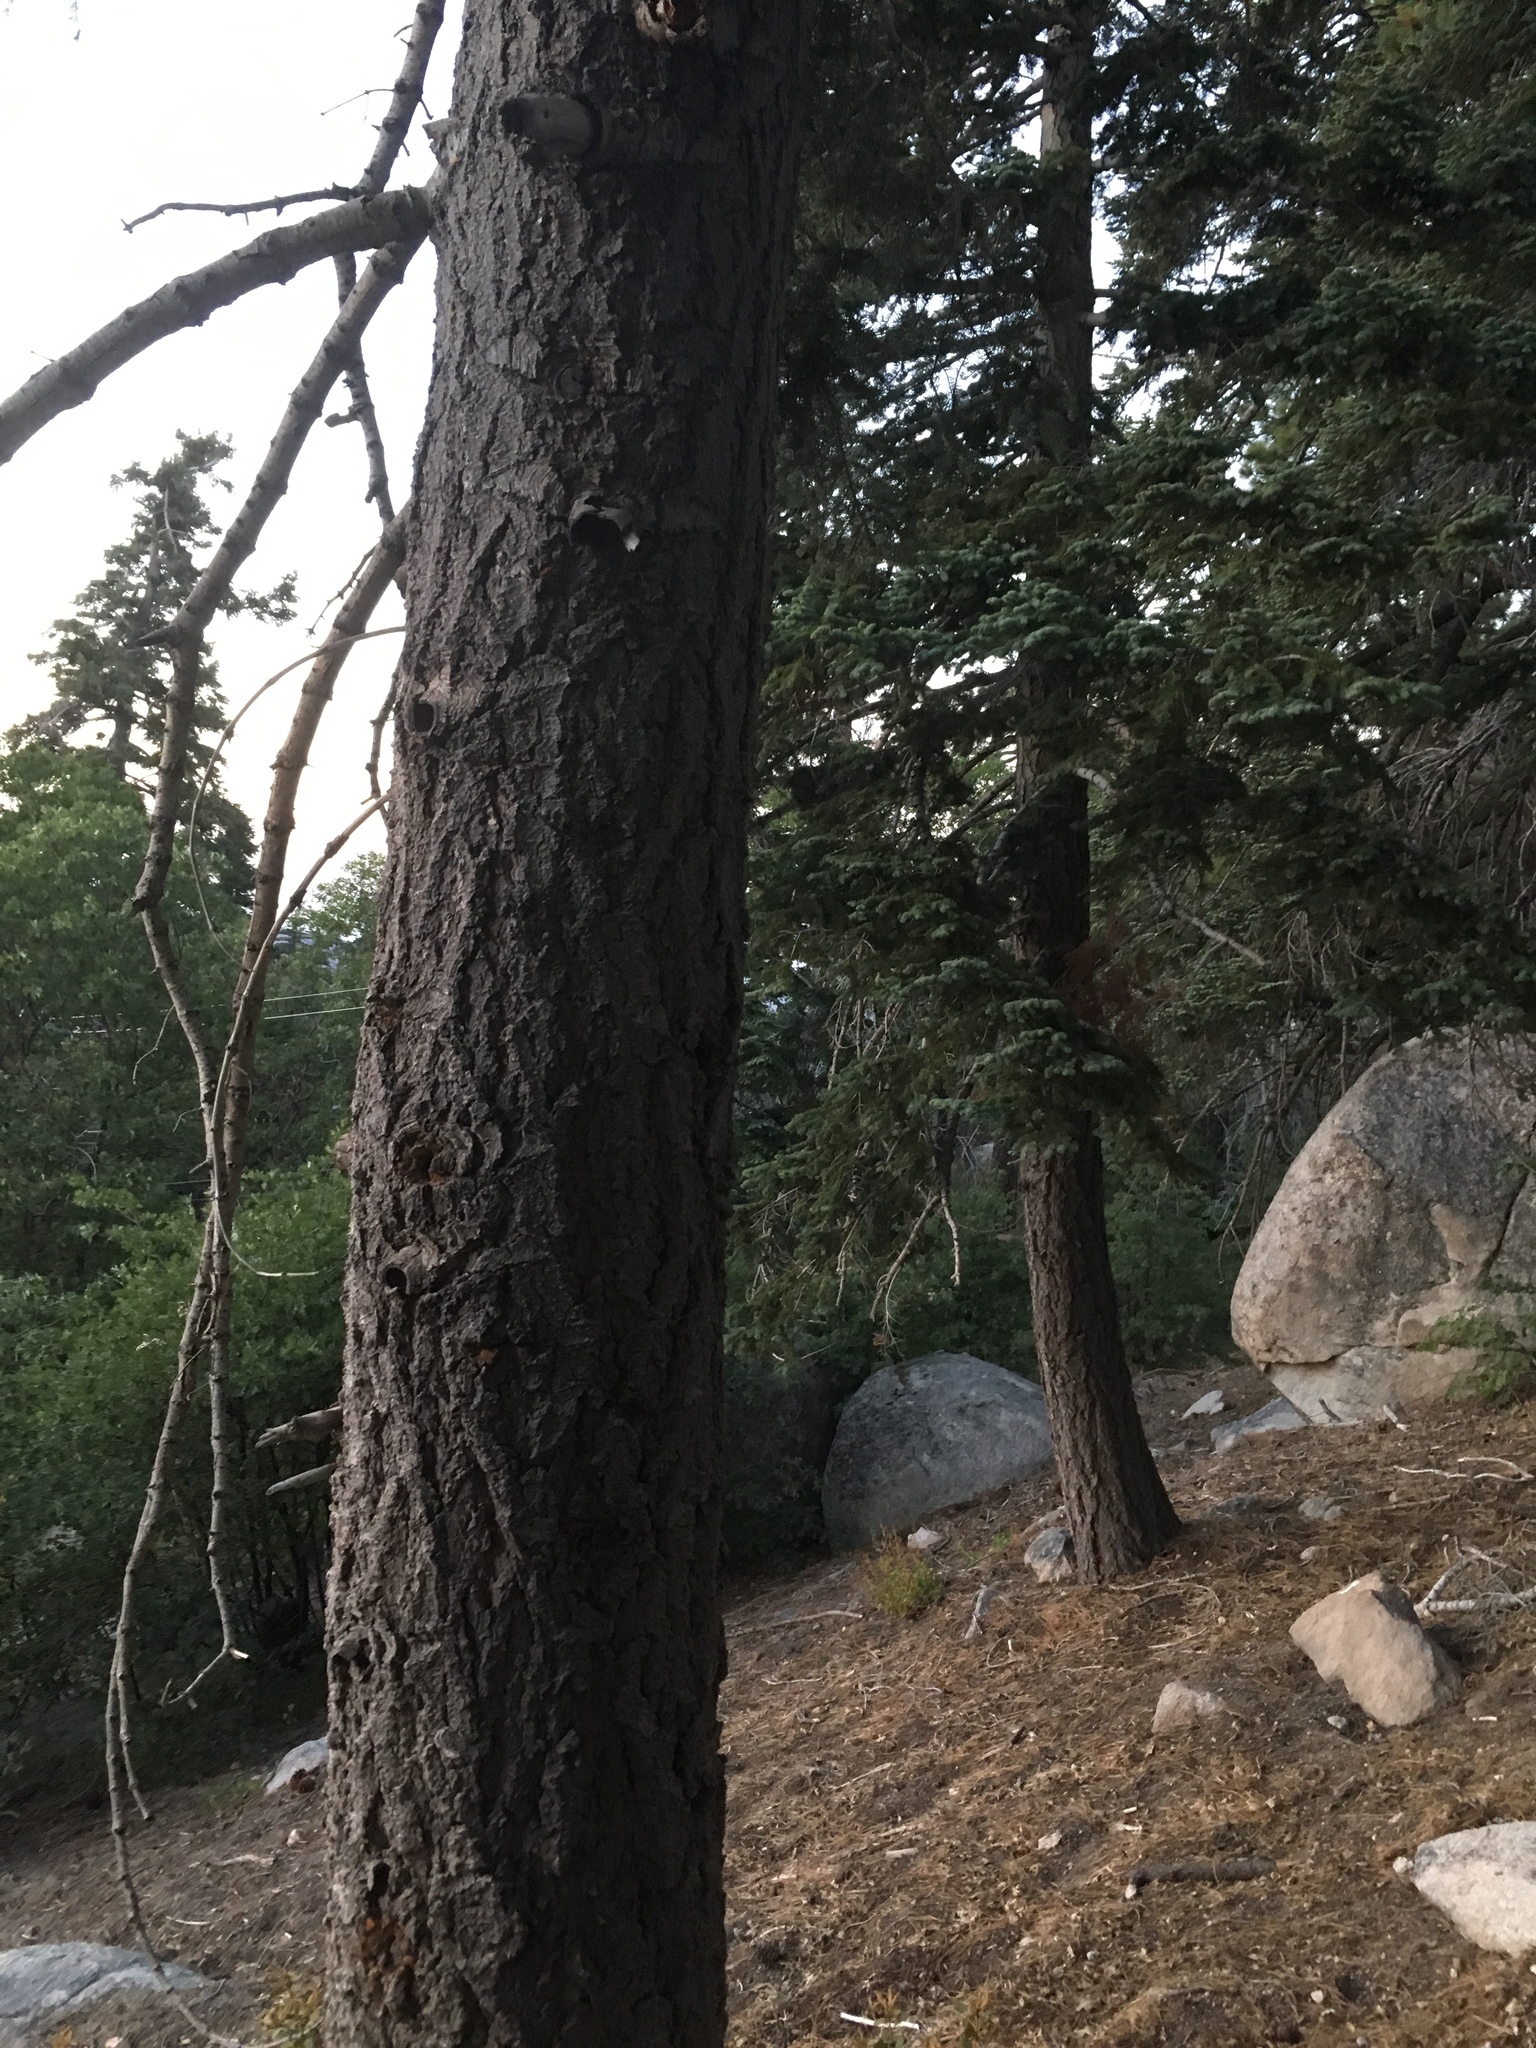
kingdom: Plantae
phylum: Tracheophyta
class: Pinopsida
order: Pinales
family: Pinaceae
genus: Abies
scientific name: Abies concolor
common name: Colorado fir
